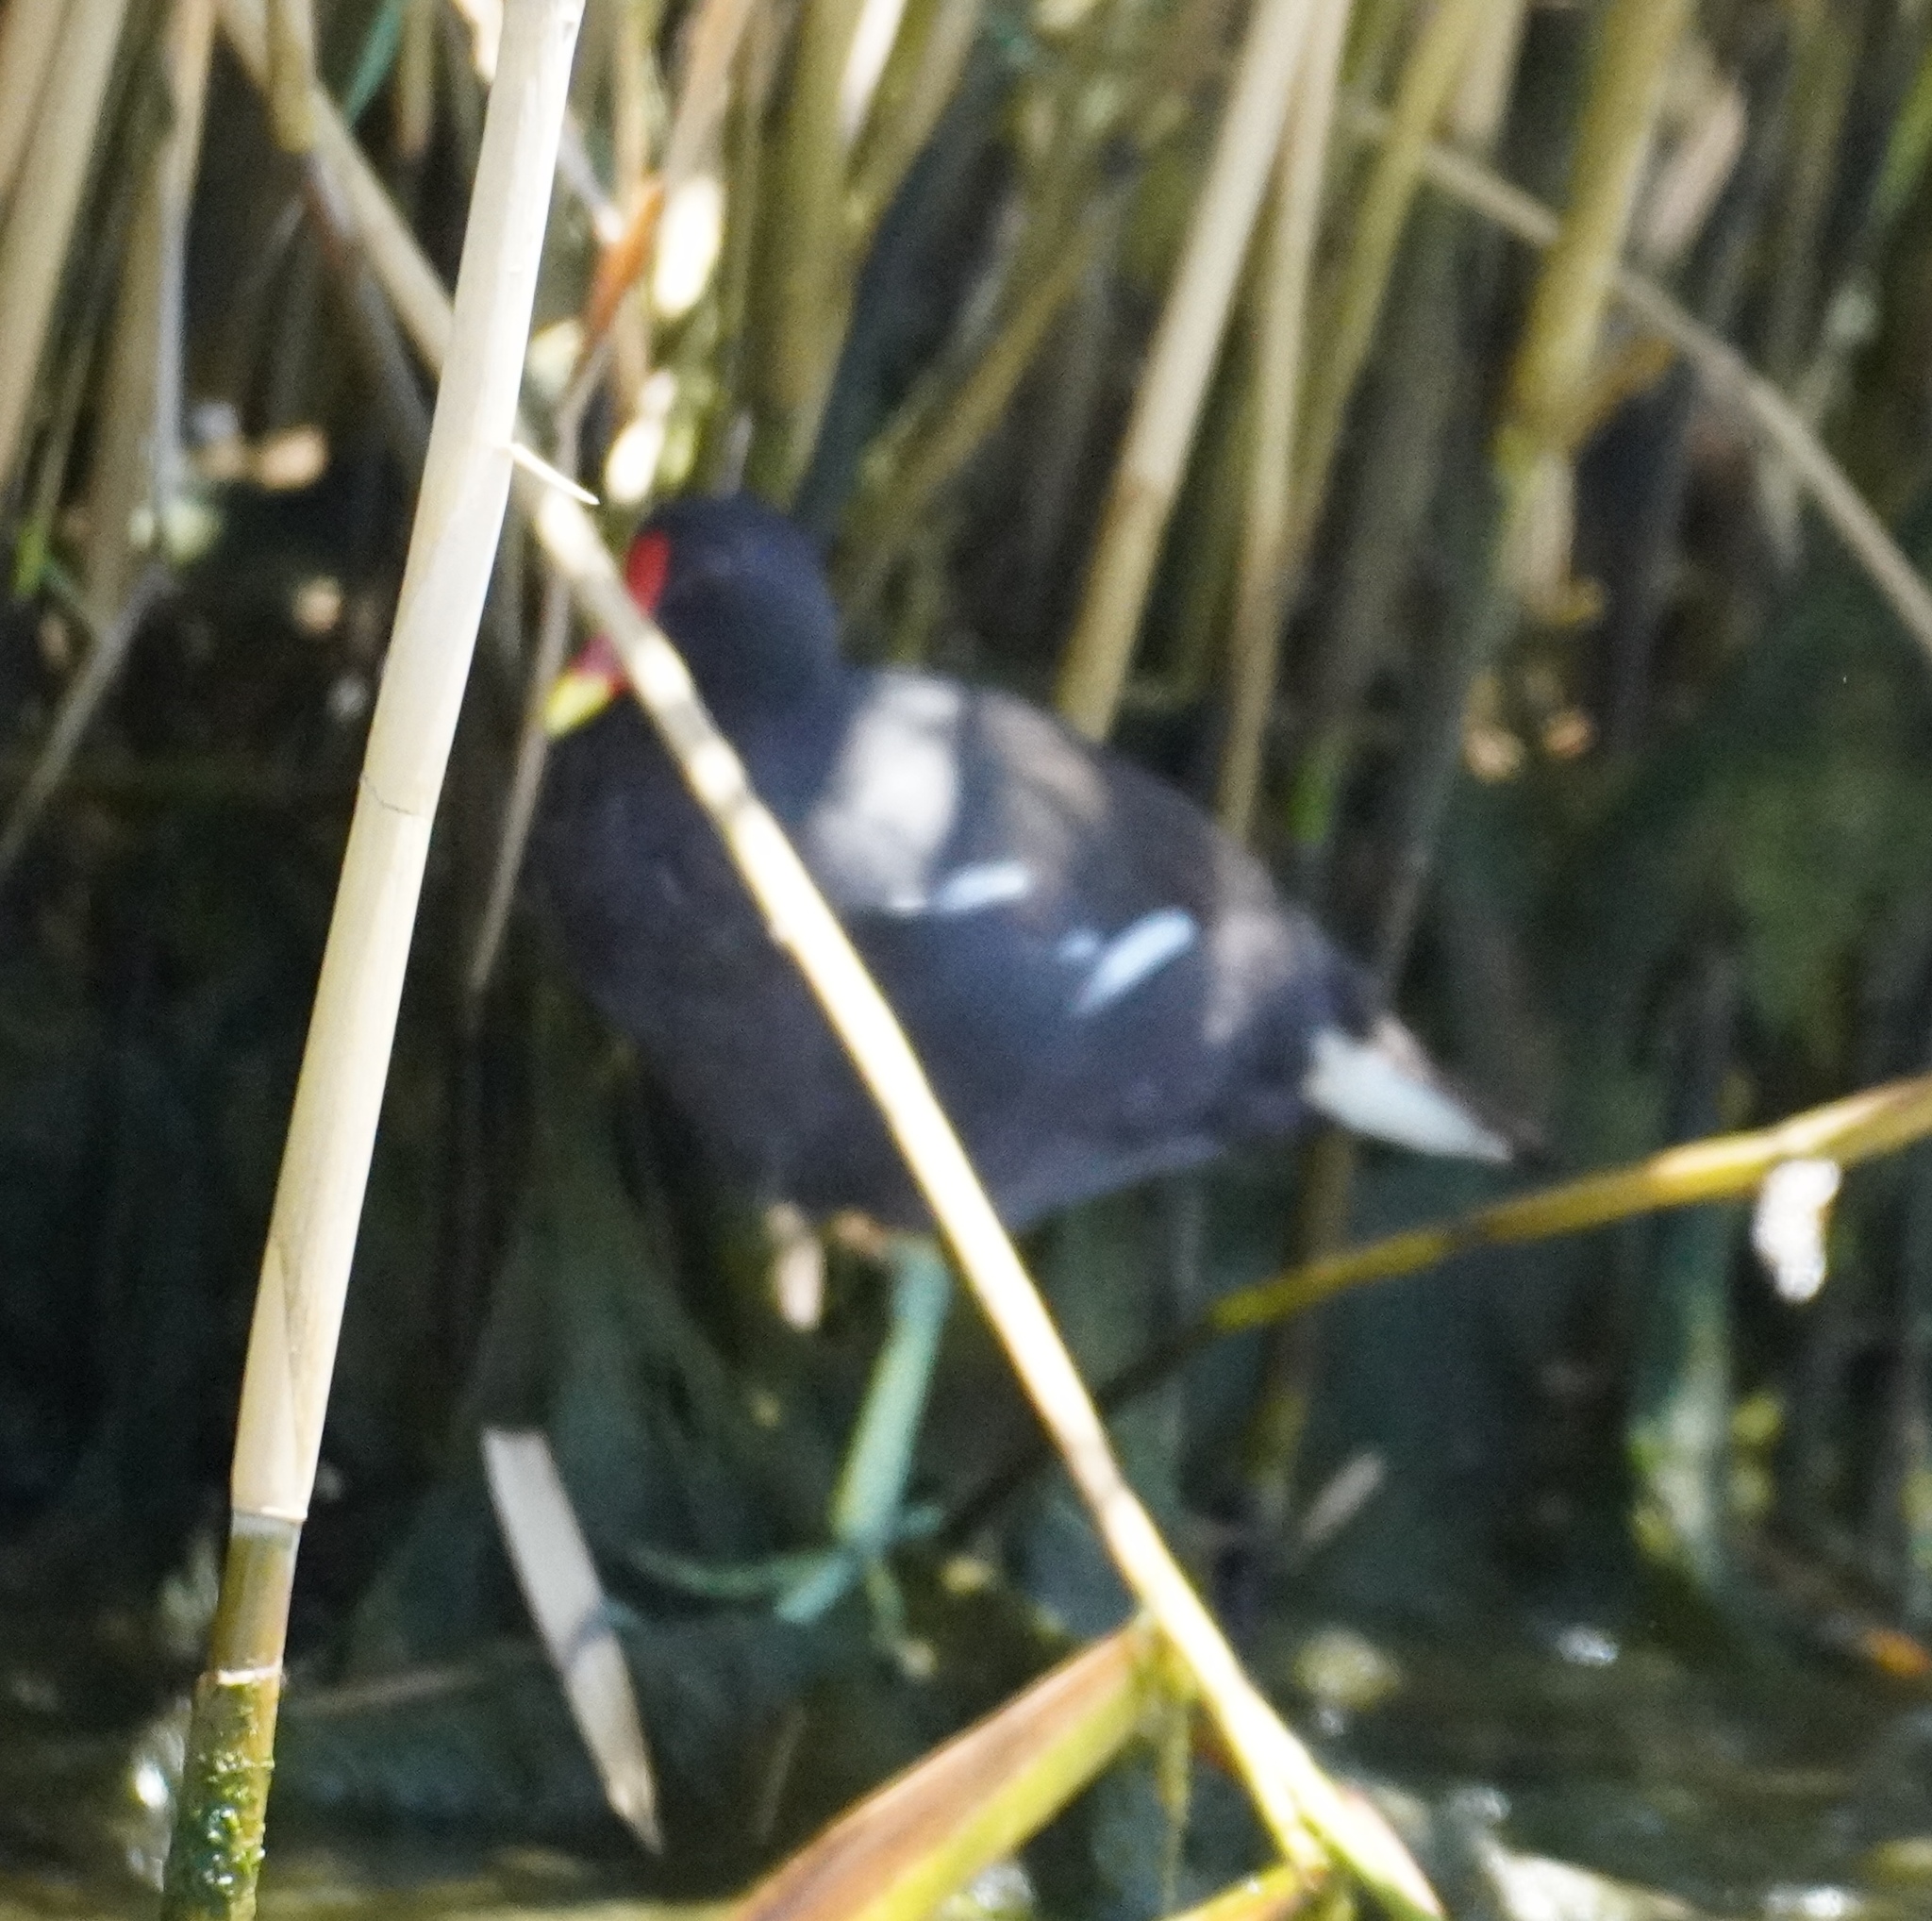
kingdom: Animalia
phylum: Chordata
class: Aves
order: Gruiformes
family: Rallidae
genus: Gallinula
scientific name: Gallinula chloropus
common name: Common moorhen
